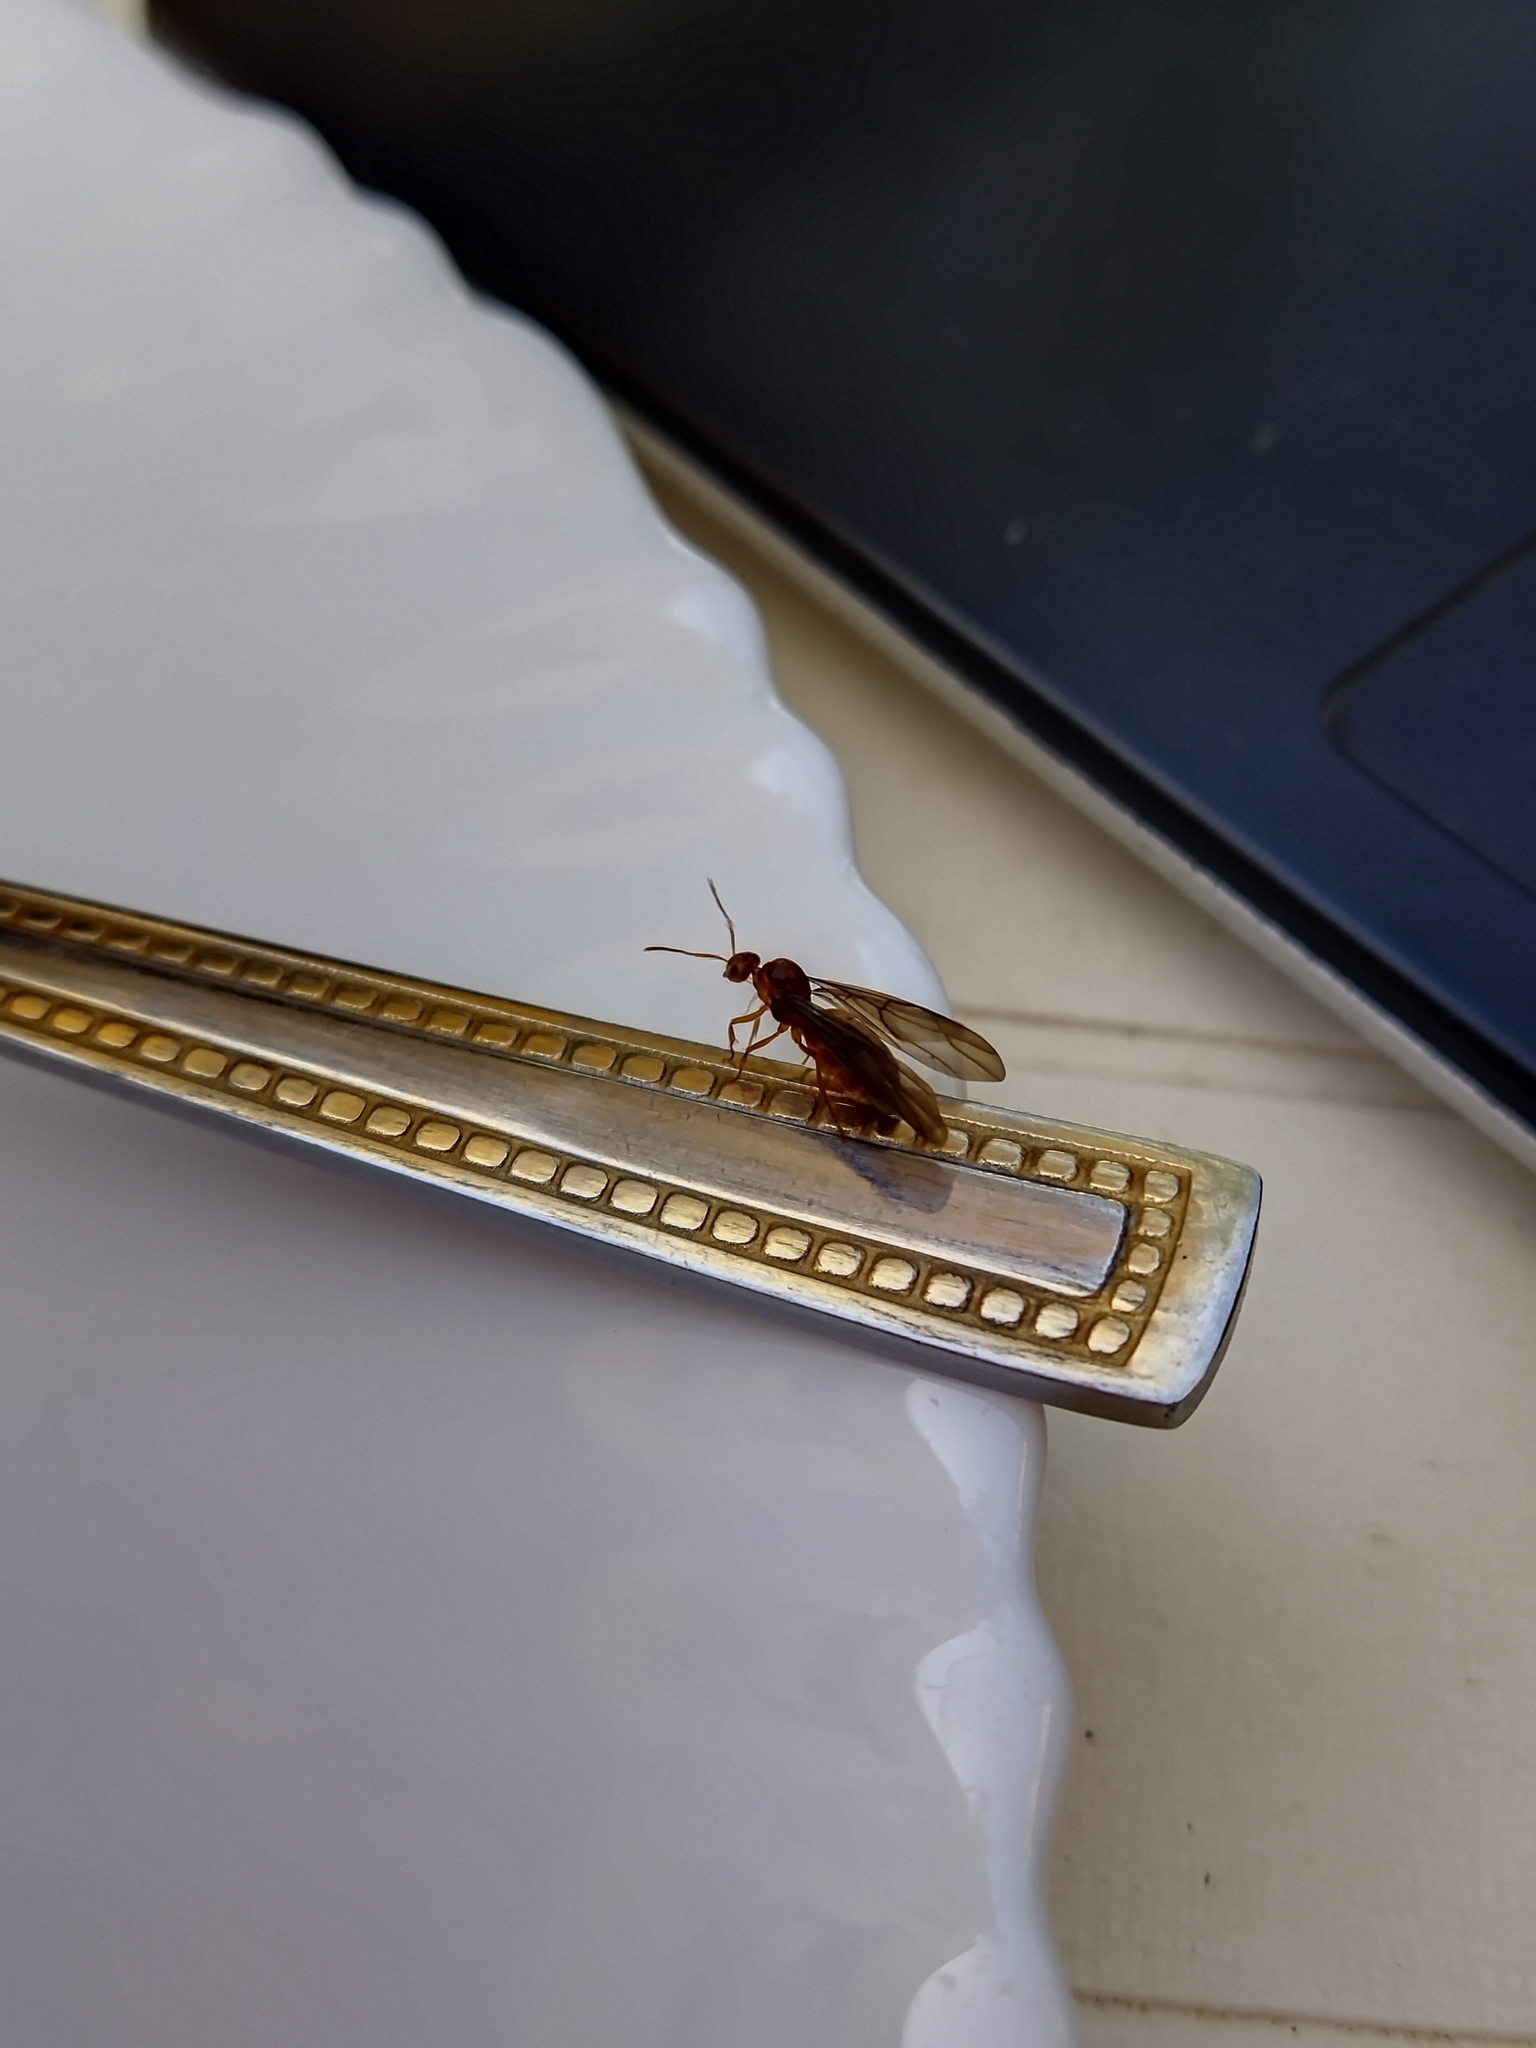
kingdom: Animalia
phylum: Arthropoda
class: Insecta
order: Hymenoptera
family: Formicidae
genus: Prenolepis
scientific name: Prenolepis nitens
